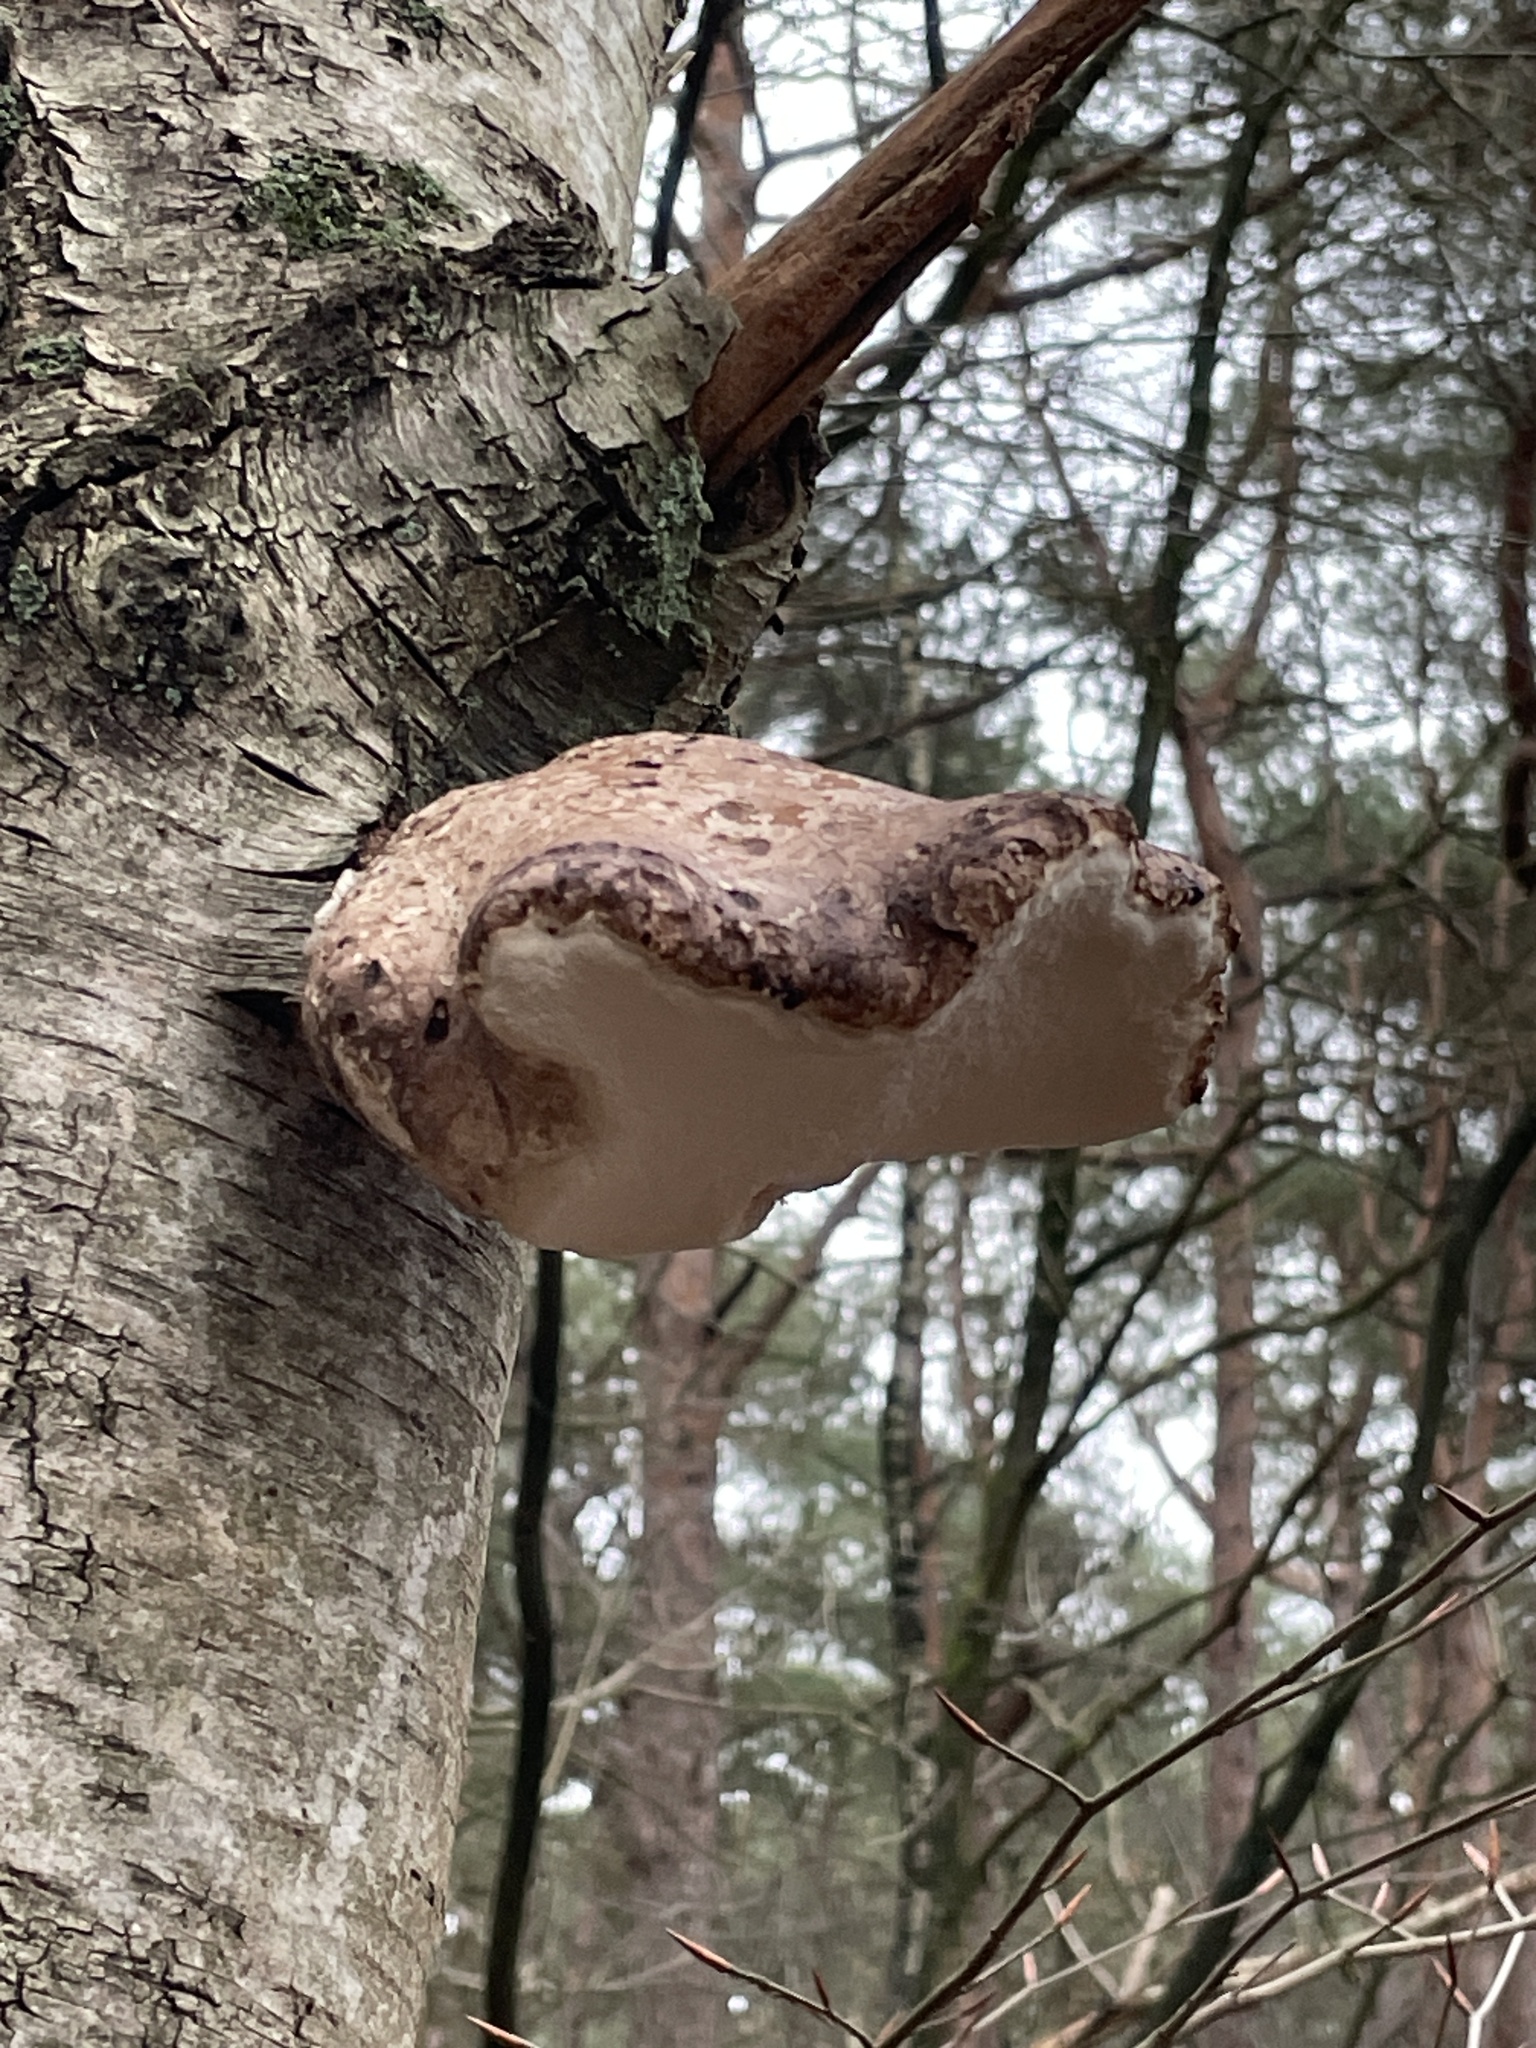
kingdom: Fungi
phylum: Basidiomycota
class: Agaricomycetes
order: Polyporales
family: Fomitopsidaceae
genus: Fomitopsis
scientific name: Fomitopsis betulina
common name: Birch polypore
